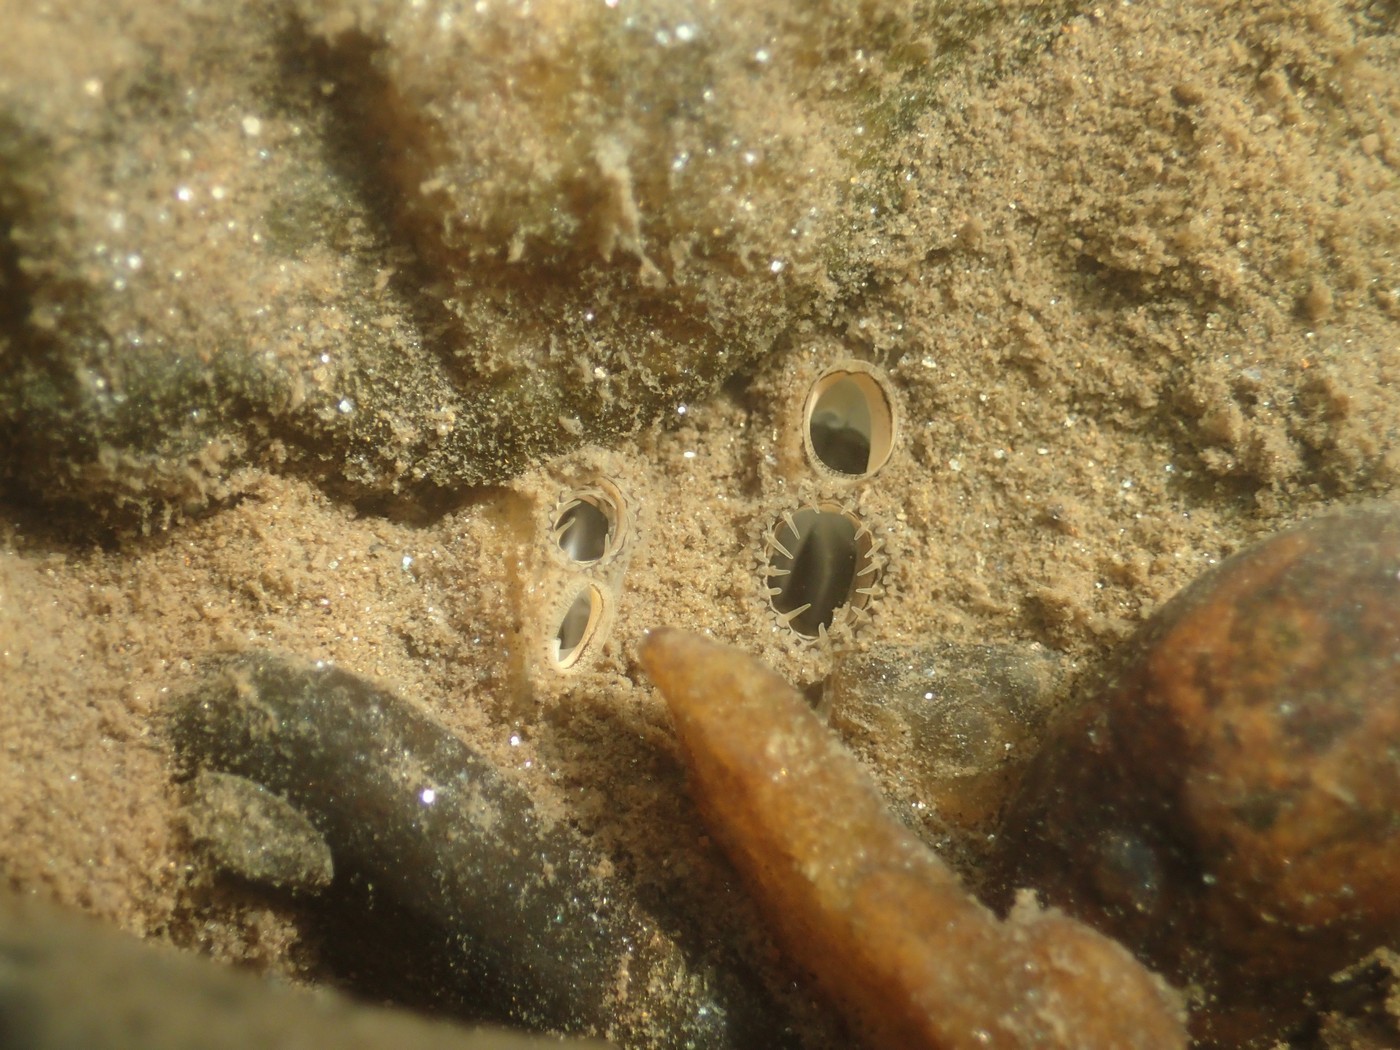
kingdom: Animalia
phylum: Mollusca
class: Bivalvia
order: Venerida
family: Cyrenidae
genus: Corbicula
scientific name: Corbicula fluminea
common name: Asian clam
